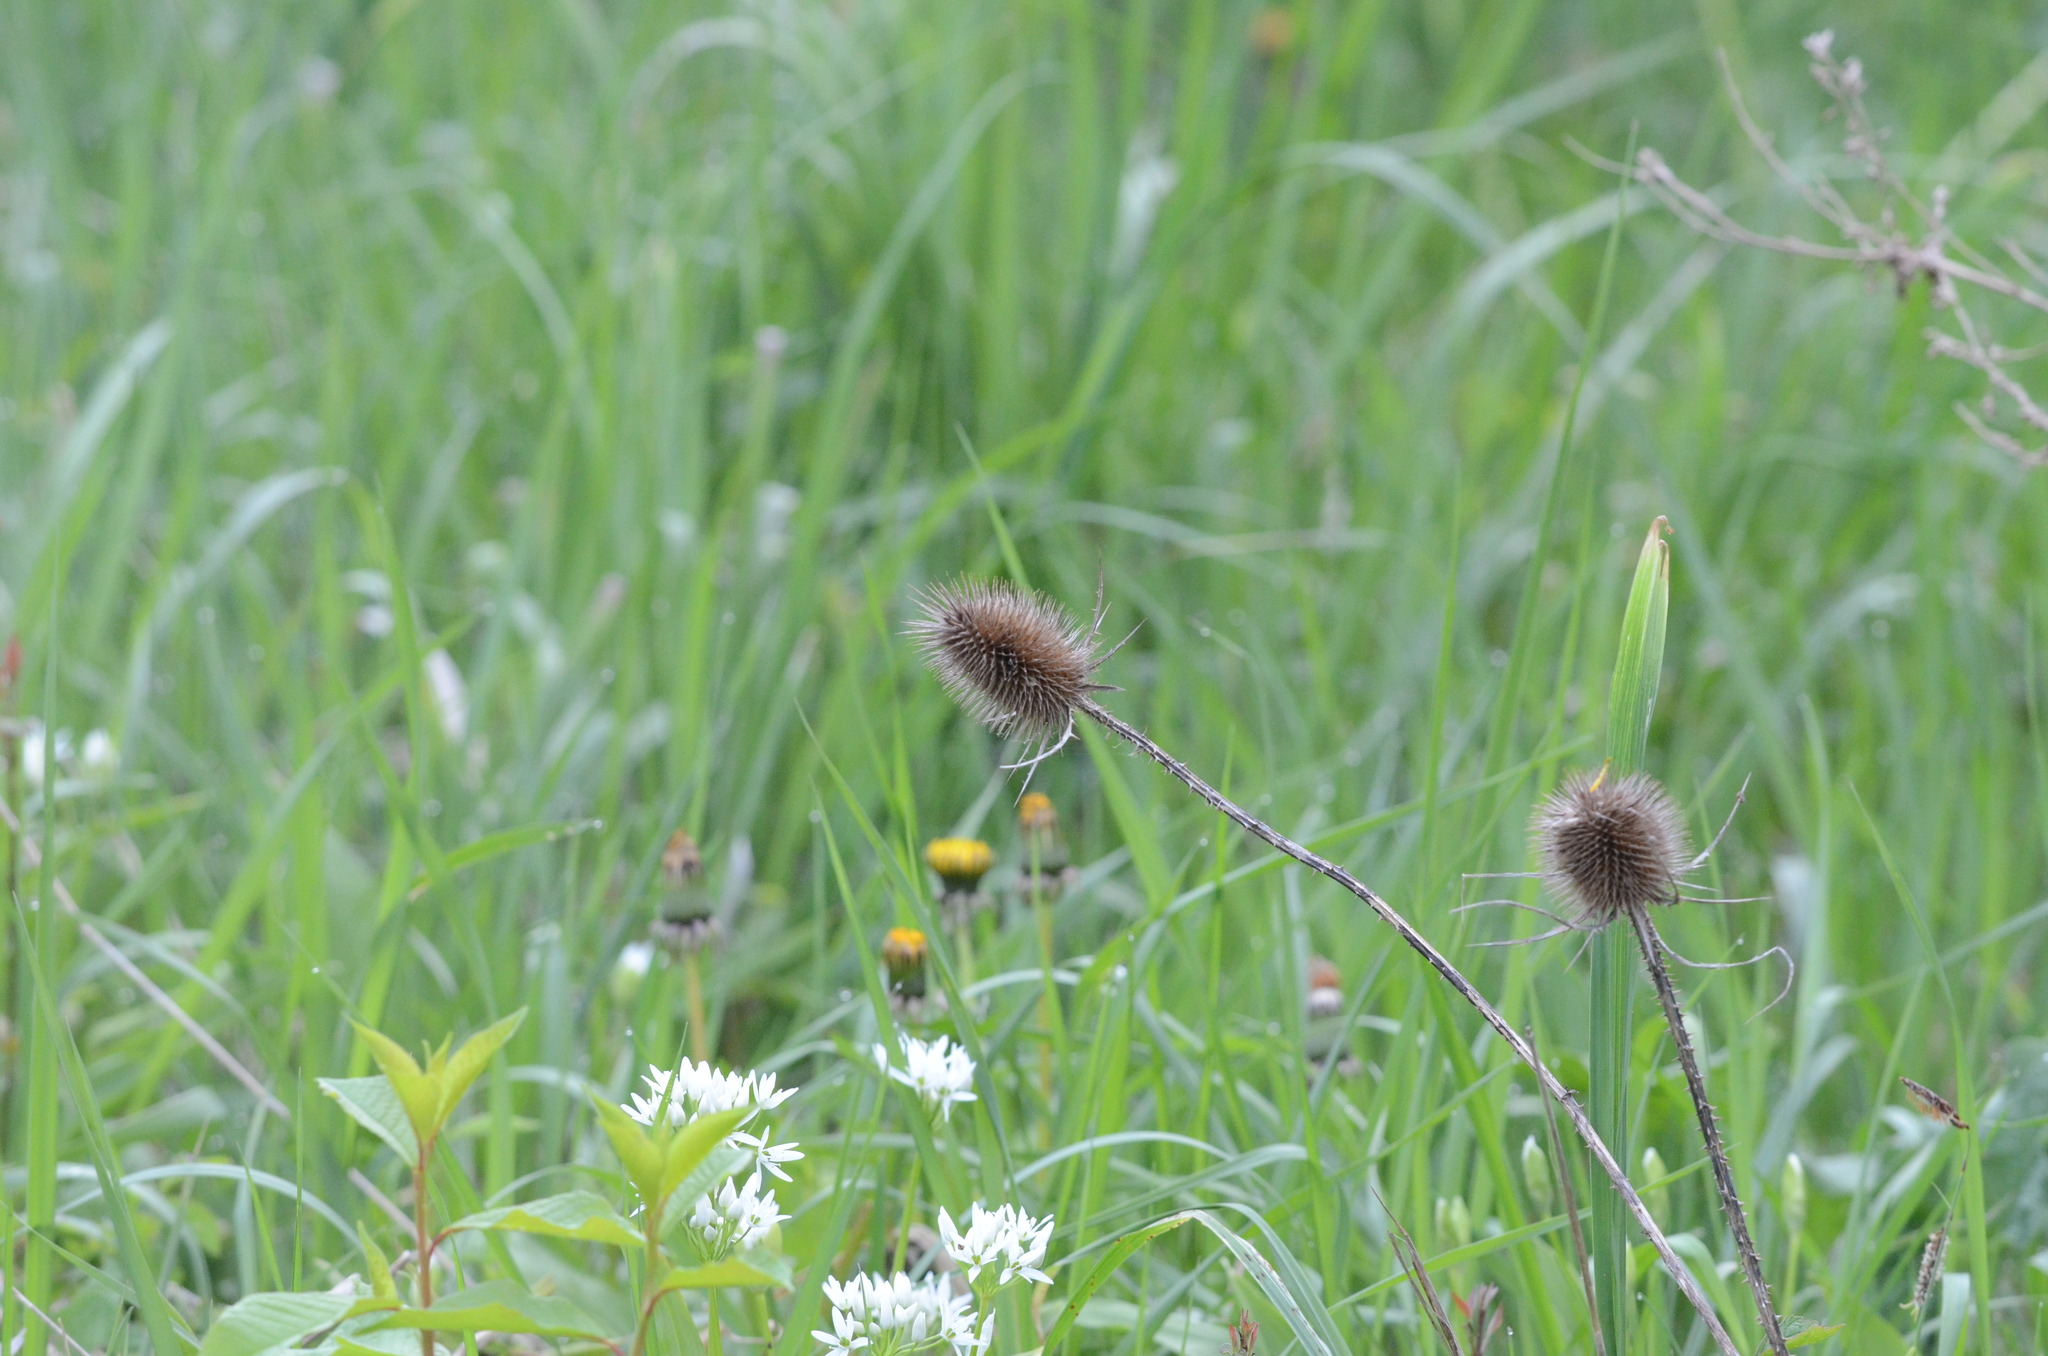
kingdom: Plantae
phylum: Tracheophyta
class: Magnoliopsida
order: Dipsacales
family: Caprifoliaceae
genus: Dipsacus
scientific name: Dipsacus fullonum
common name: Teasel
